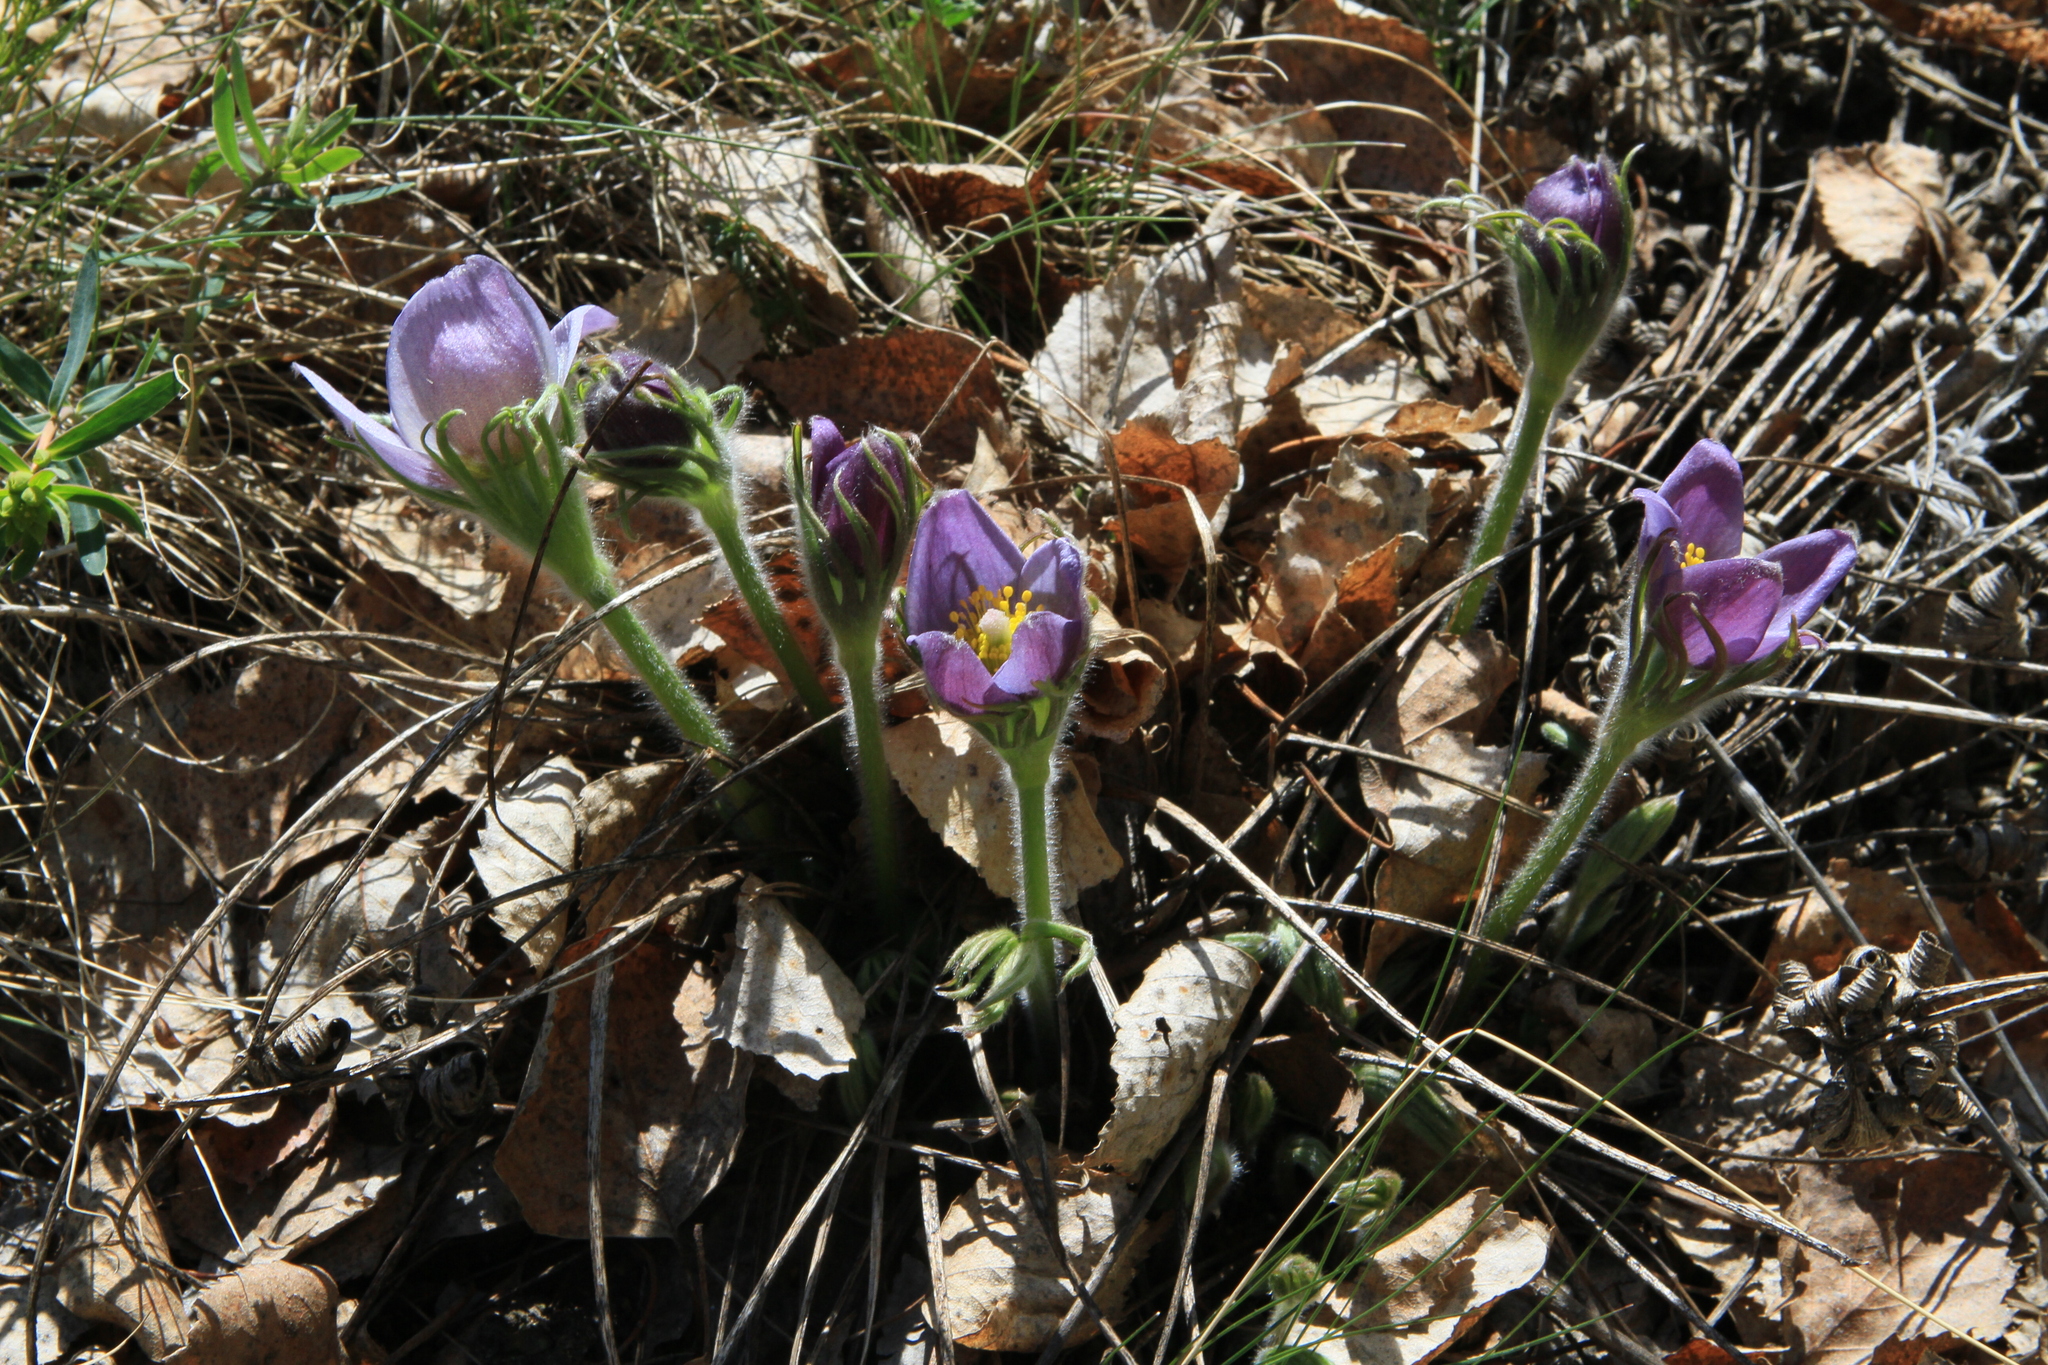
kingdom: Plantae
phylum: Tracheophyta
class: Magnoliopsida
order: Ranunculales
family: Ranunculaceae
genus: Pulsatilla
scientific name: Pulsatilla patens
